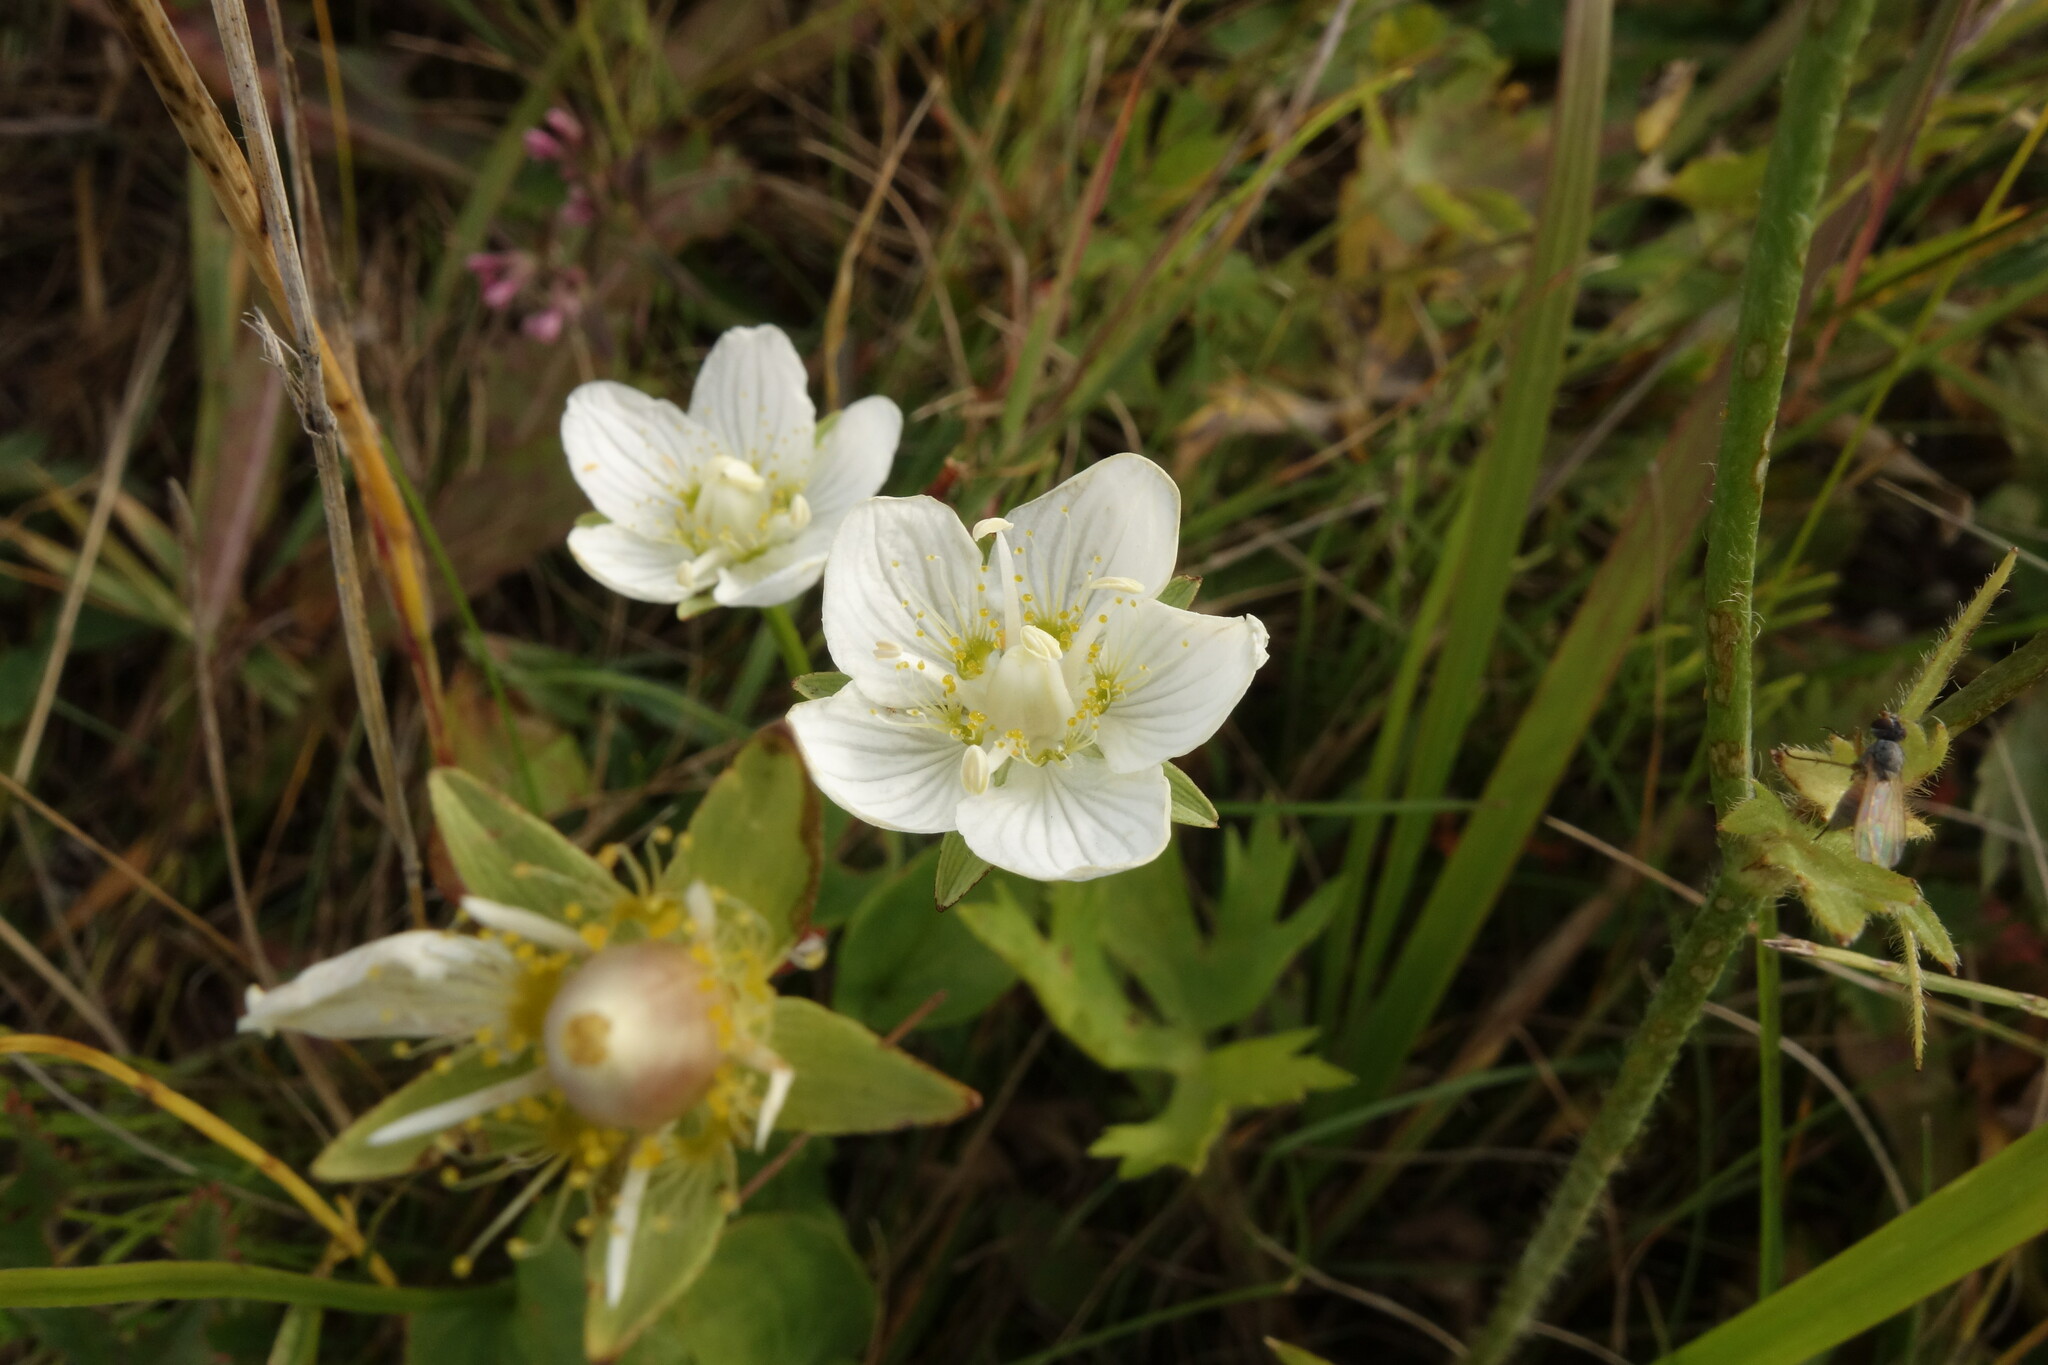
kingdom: Plantae
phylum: Tracheophyta
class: Magnoliopsida
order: Celastrales
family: Parnassiaceae
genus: Parnassia
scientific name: Parnassia palustris
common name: Grass-of-parnassus
